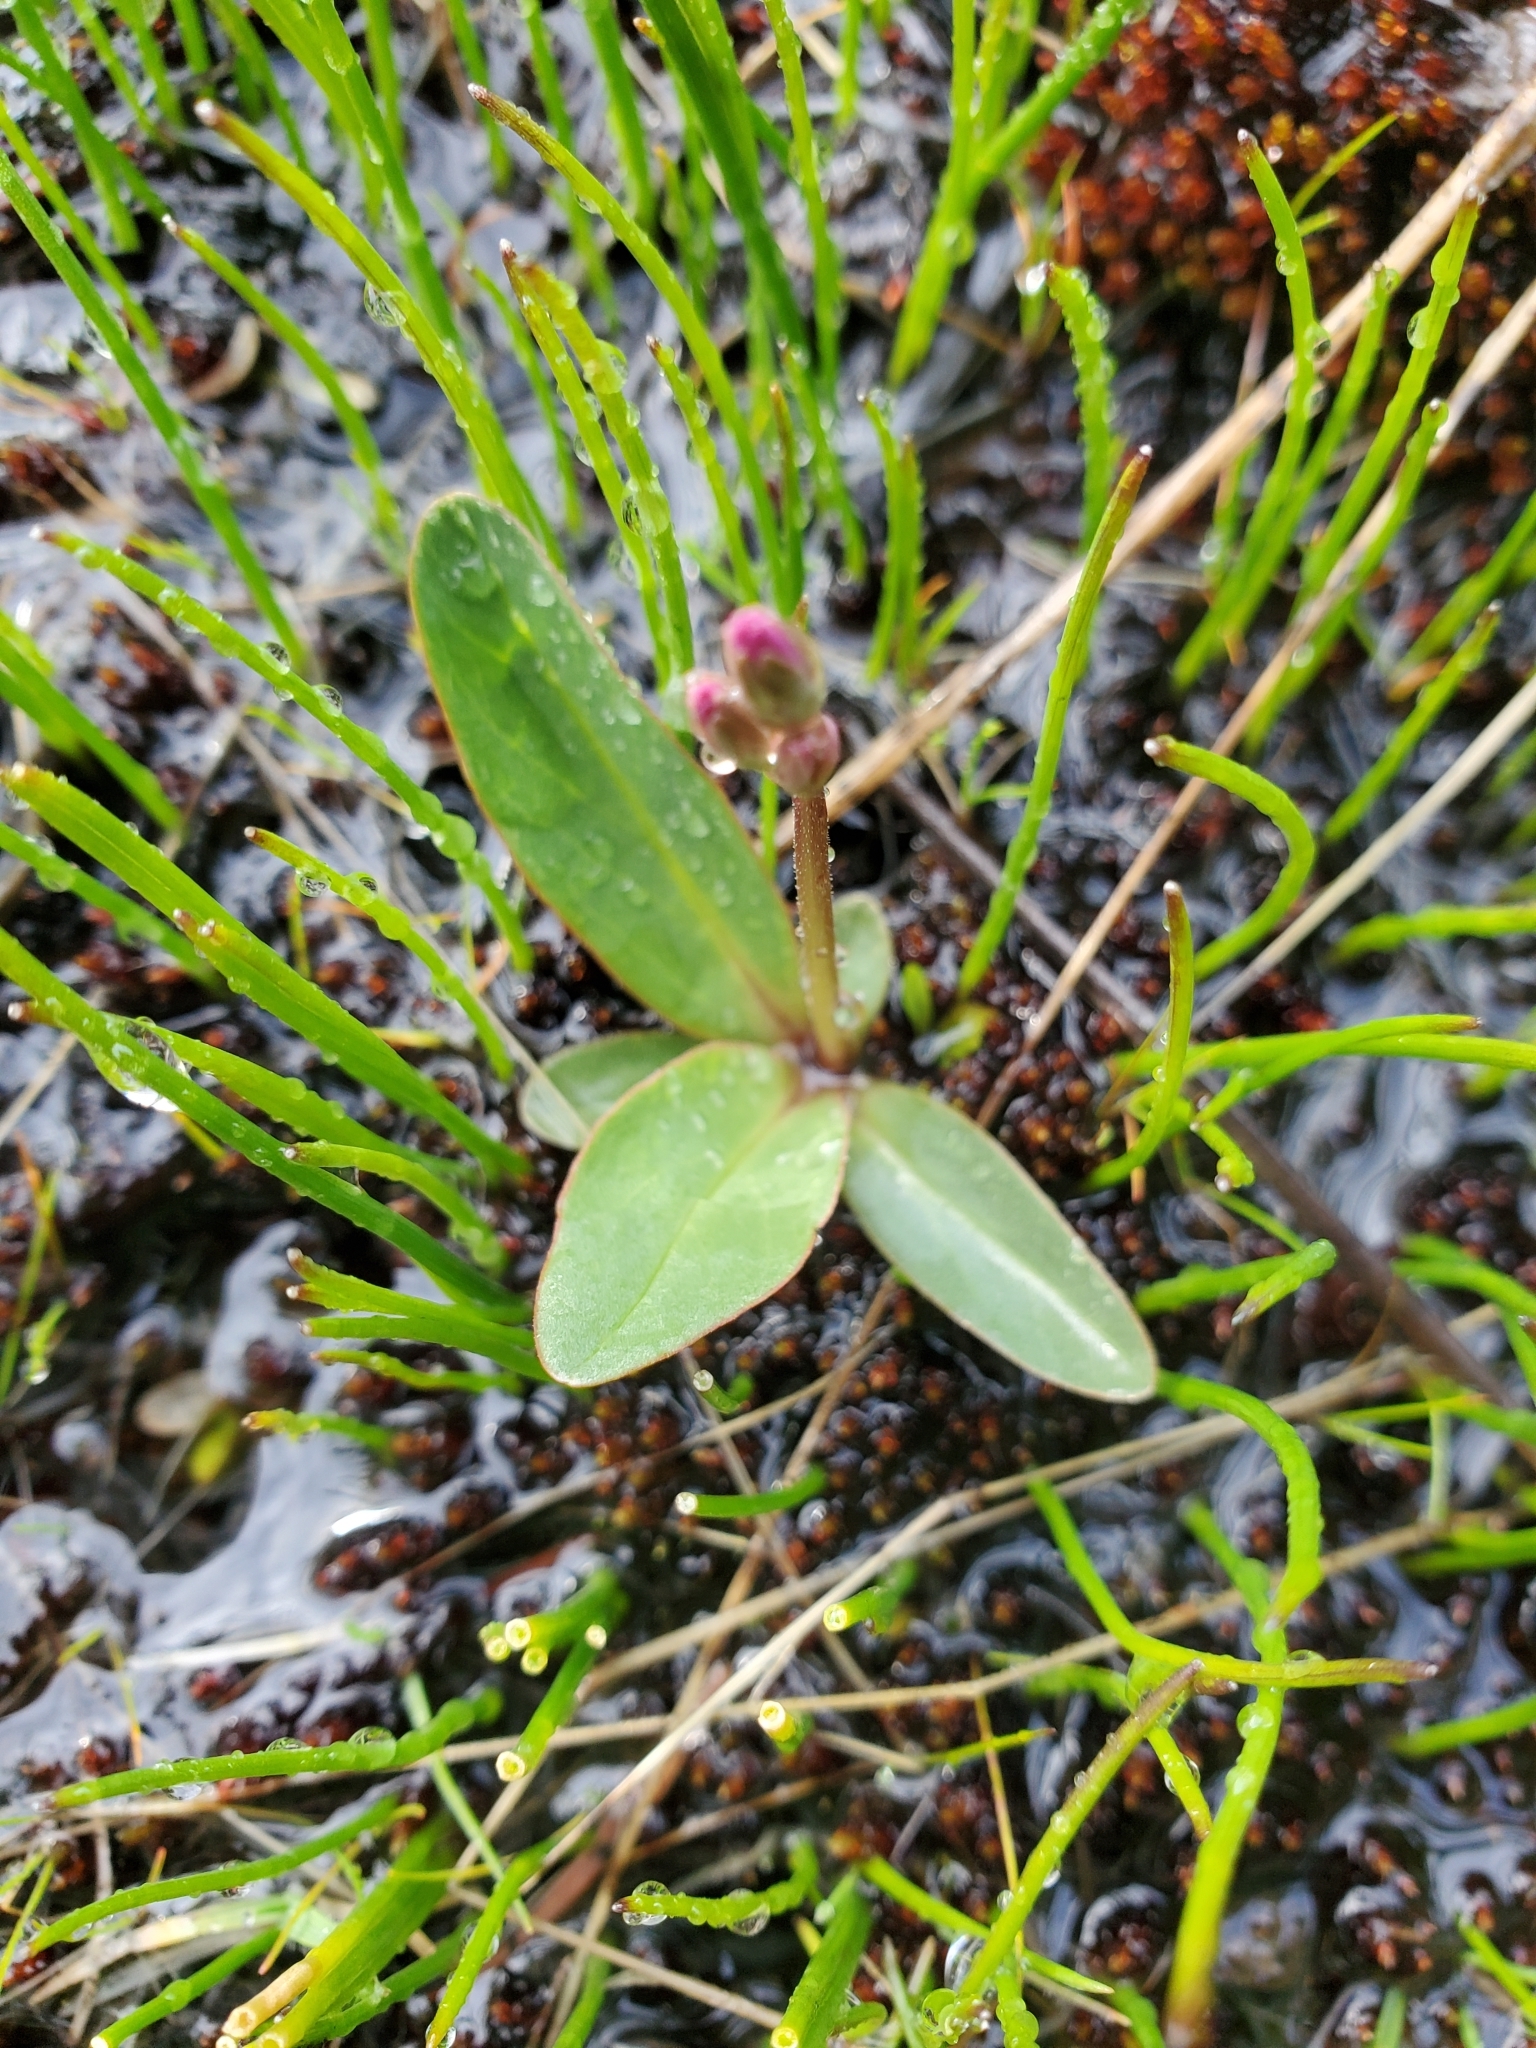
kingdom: Plantae
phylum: Tracheophyta
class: Magnoliopsida
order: Ericales
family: Primulaceae
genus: Dodecatheon
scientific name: Dodecatheon pulchellum
